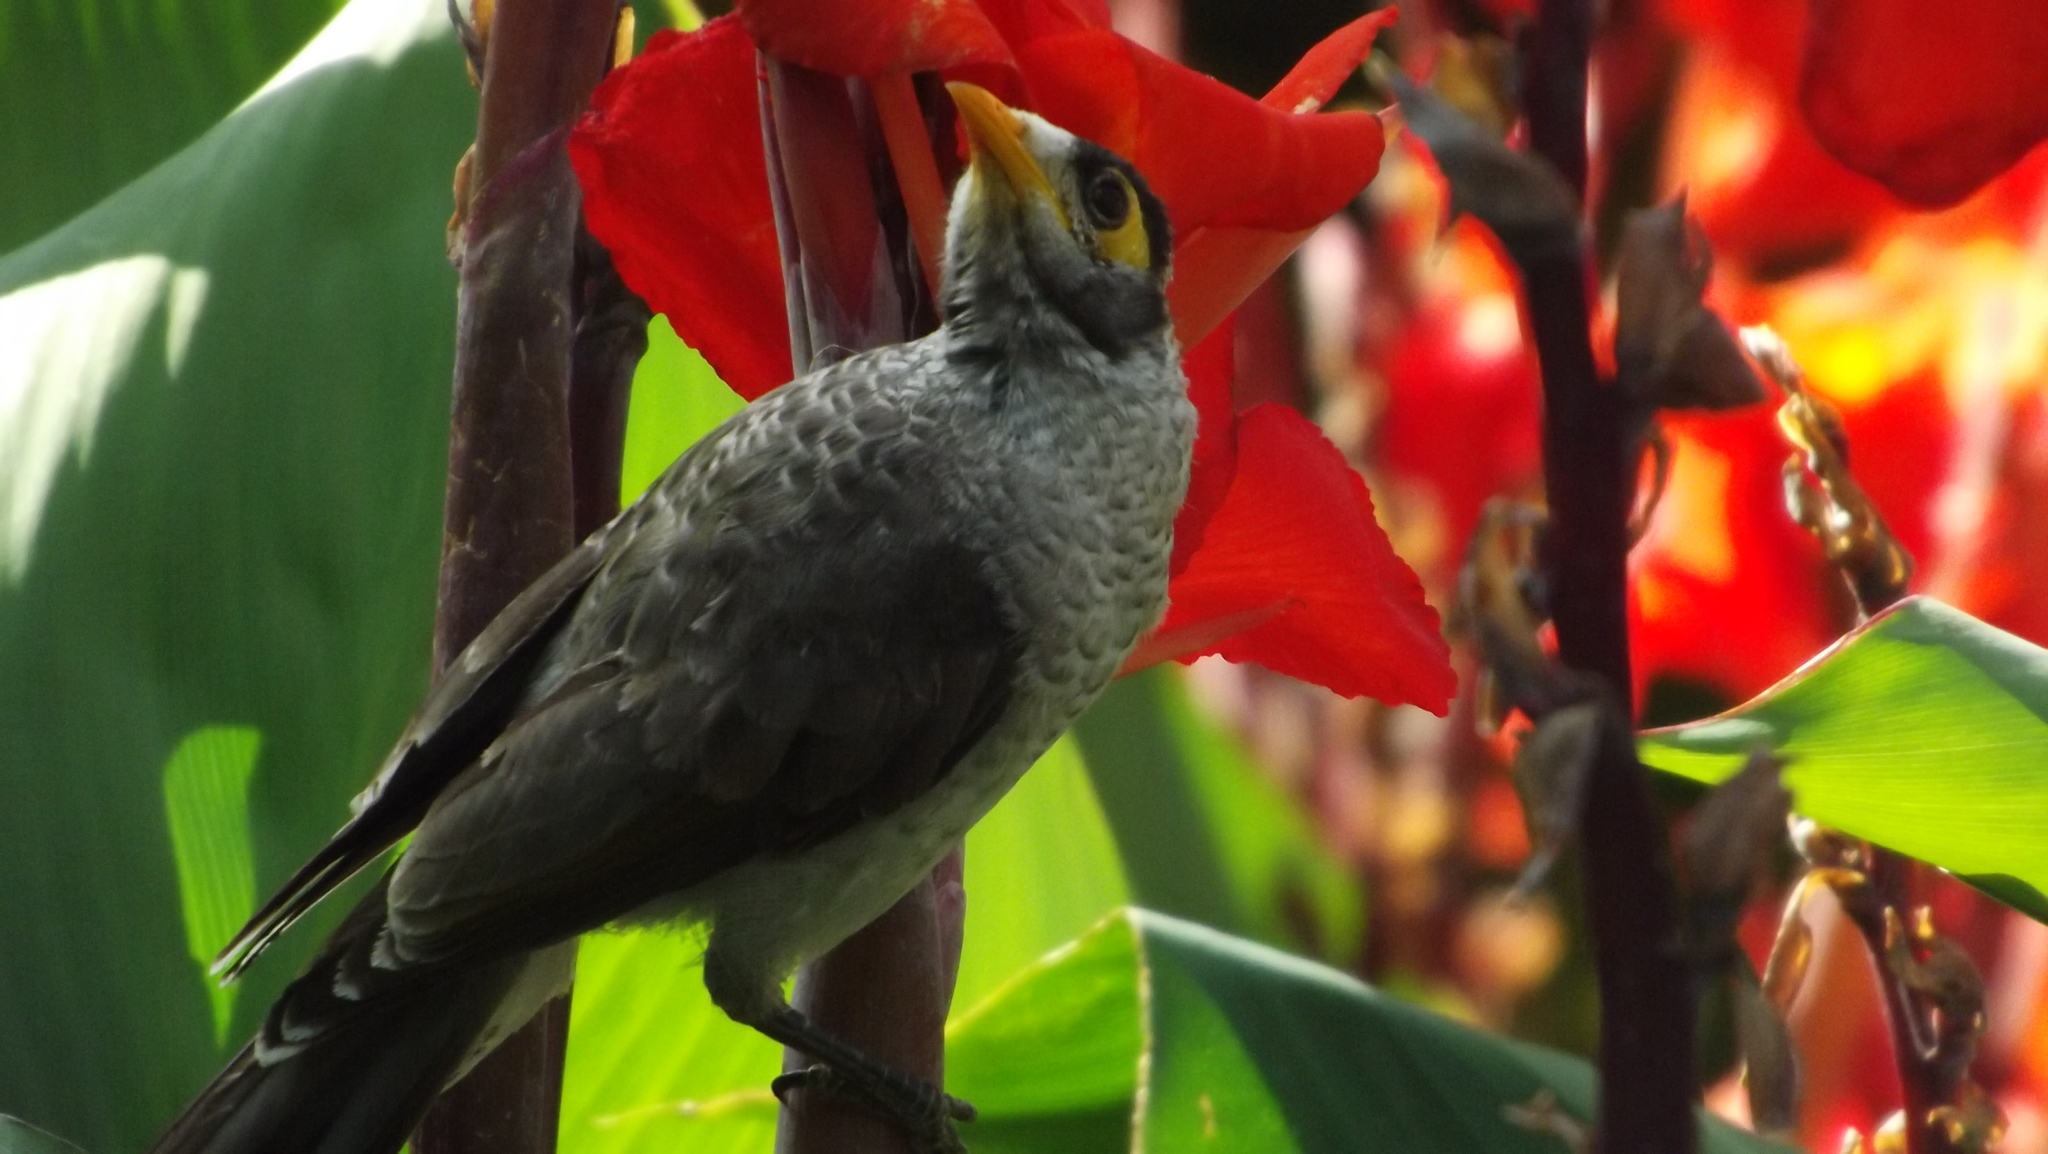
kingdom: Animalia
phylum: Chordata
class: Aves
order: Passeriformes
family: Meliphagidae
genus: Manorina
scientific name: Manorina melanocephala
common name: Noisy miner
